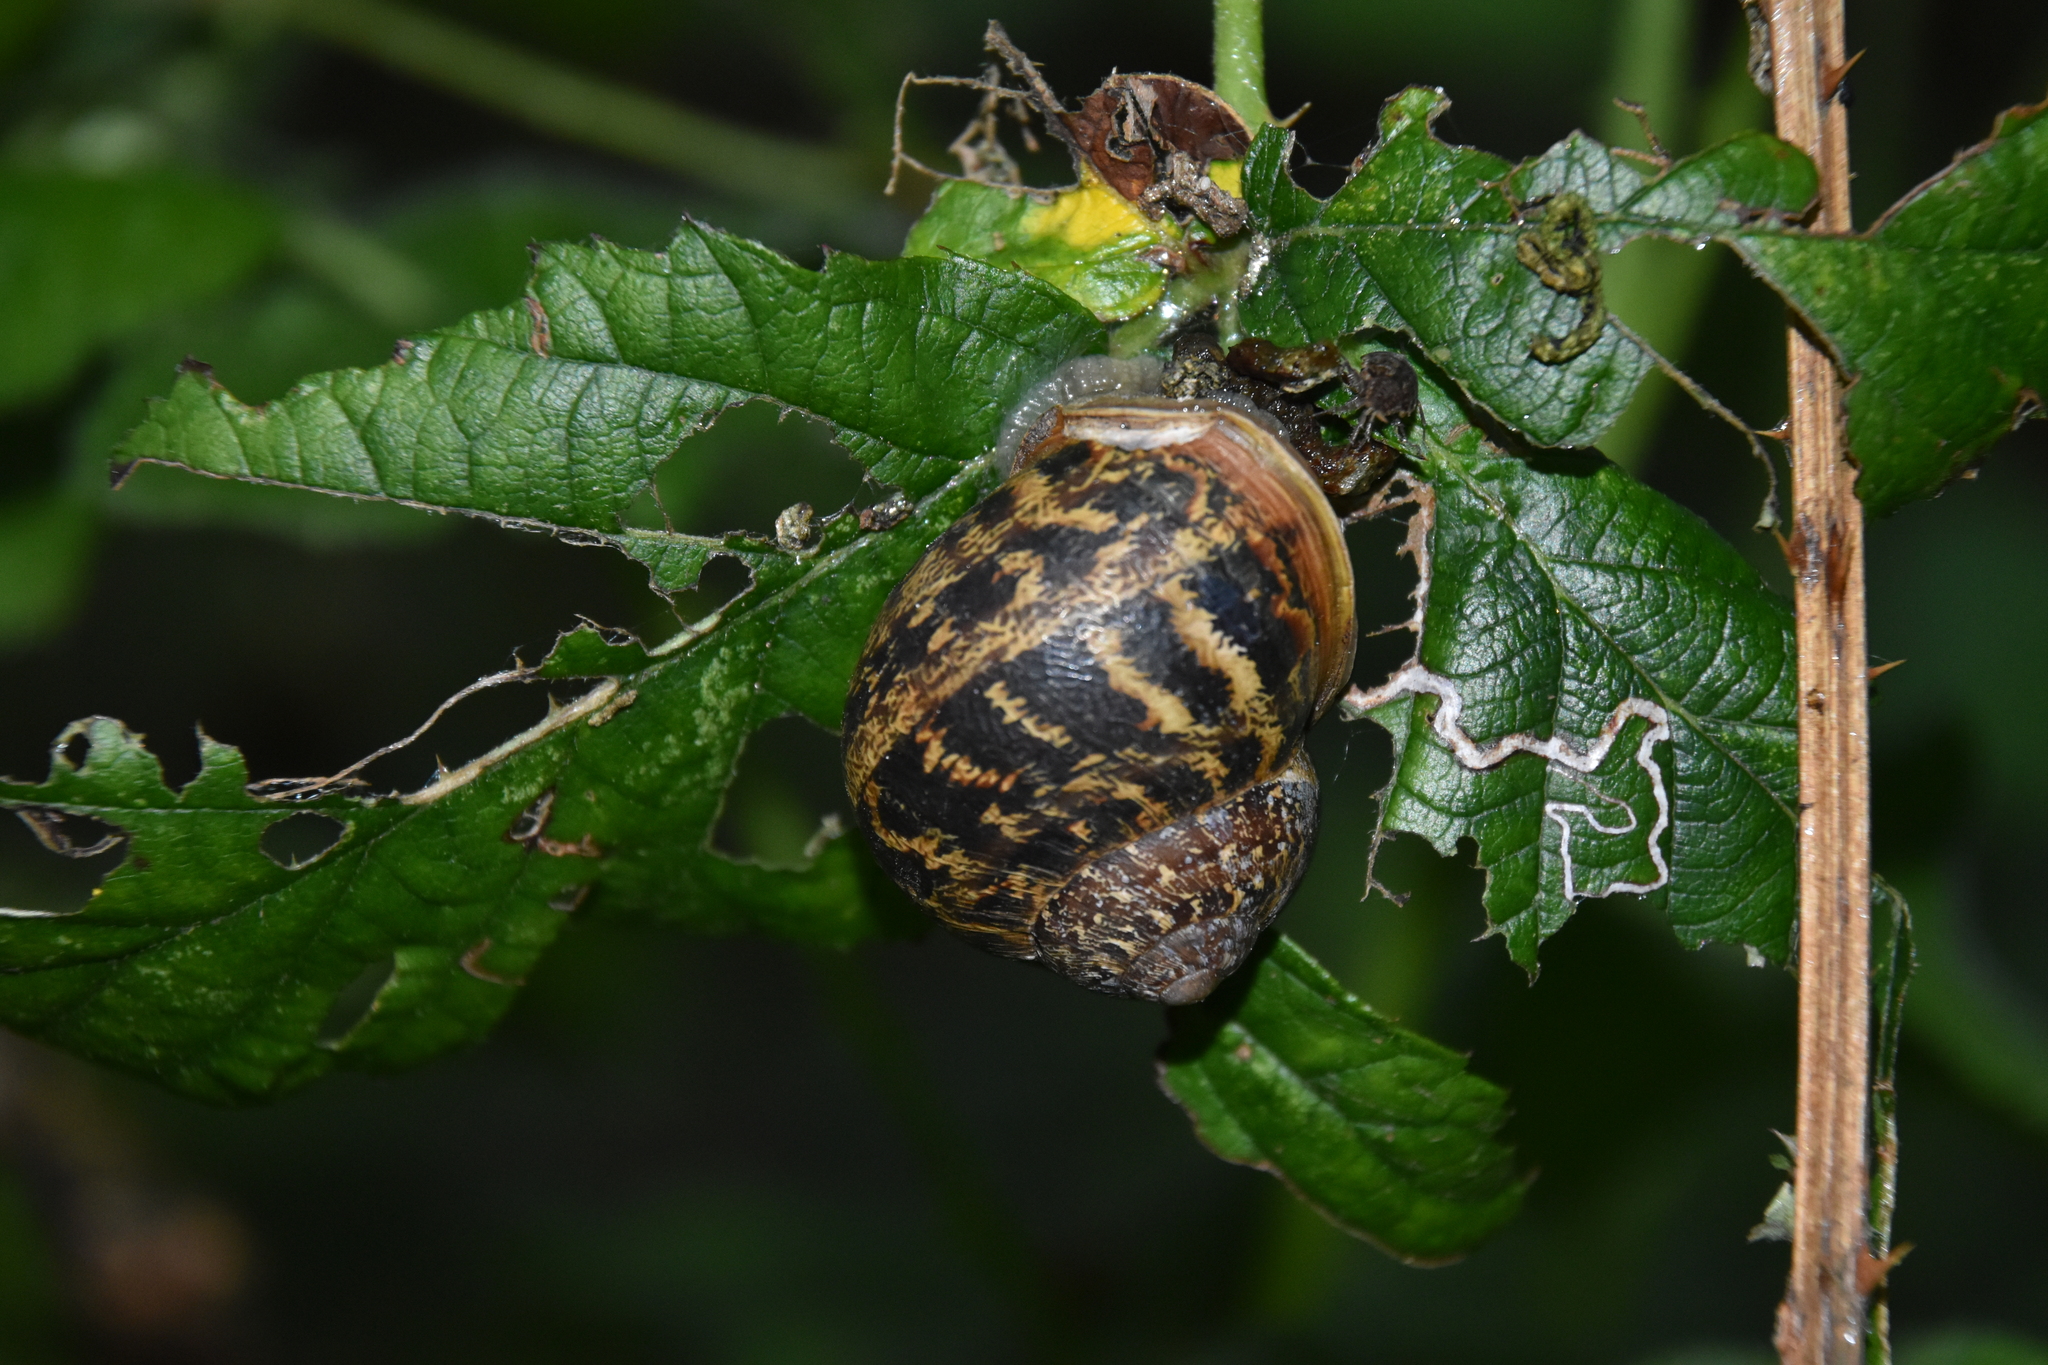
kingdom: Animalia
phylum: Mollusca
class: Gastropoda
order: Stylommatophora
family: Helicidae
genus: Cornu
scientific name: Cornu aspersum
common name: Brown garden snail
